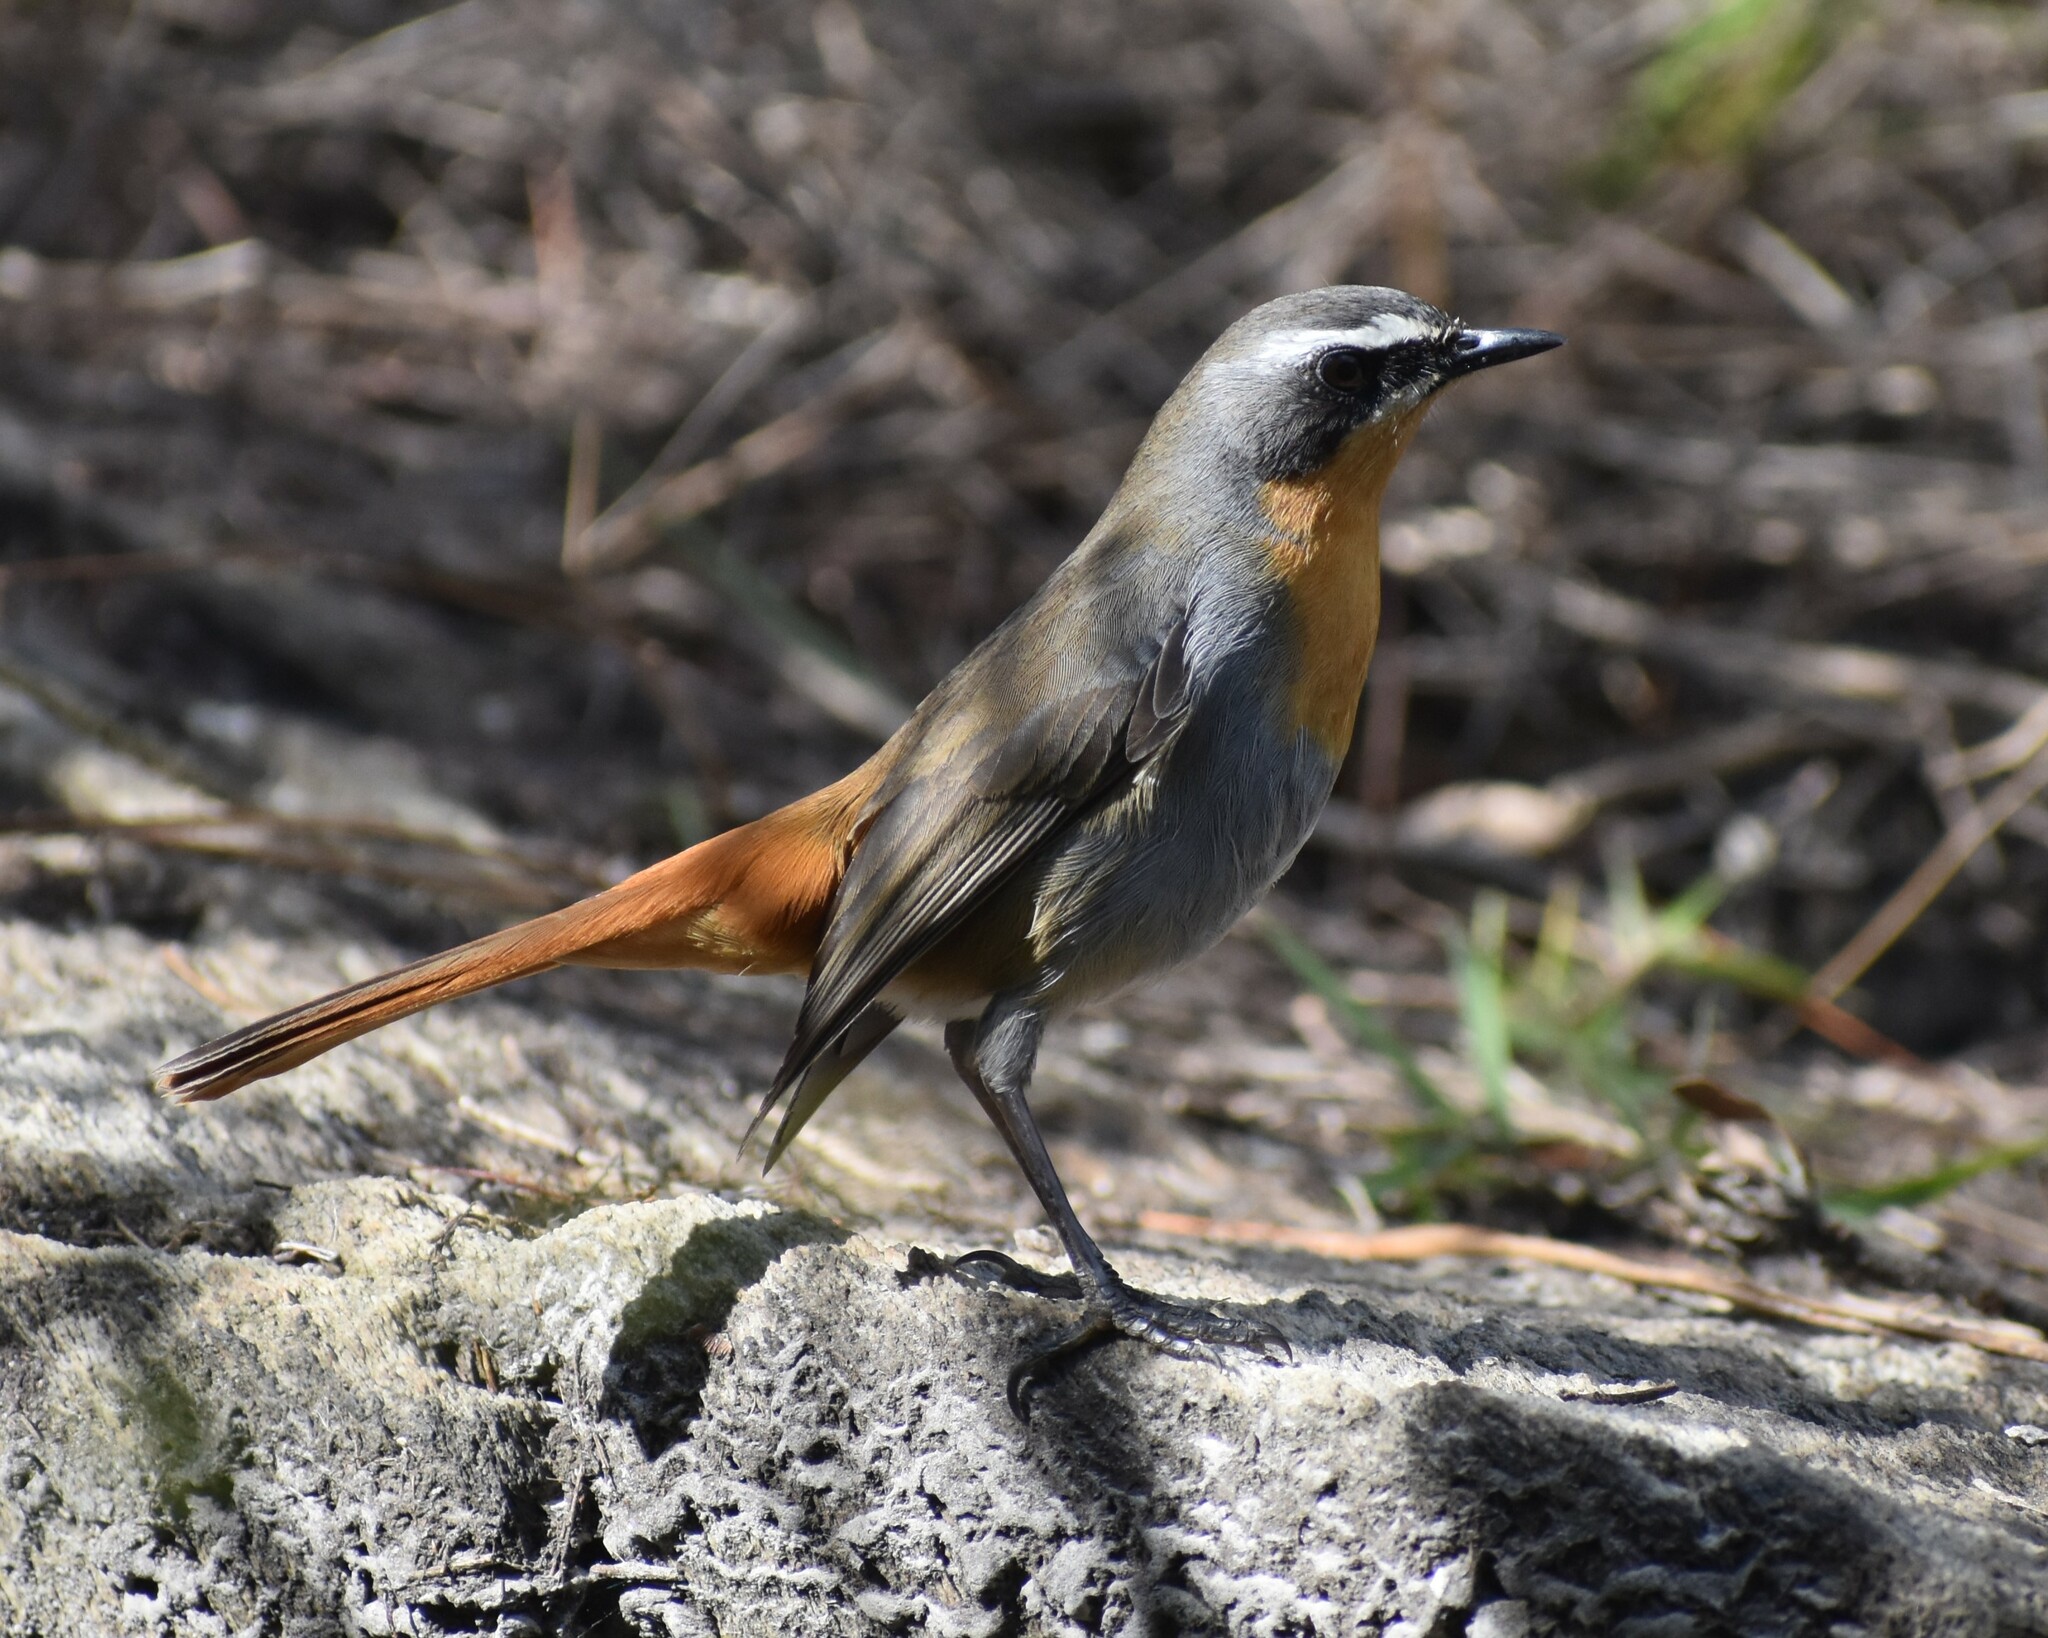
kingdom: Animalia
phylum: Chordata
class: Aves
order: Passeriformes
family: Muscicapidae
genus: Cossypha
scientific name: Cossypha caffra
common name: Cape robin-chat
